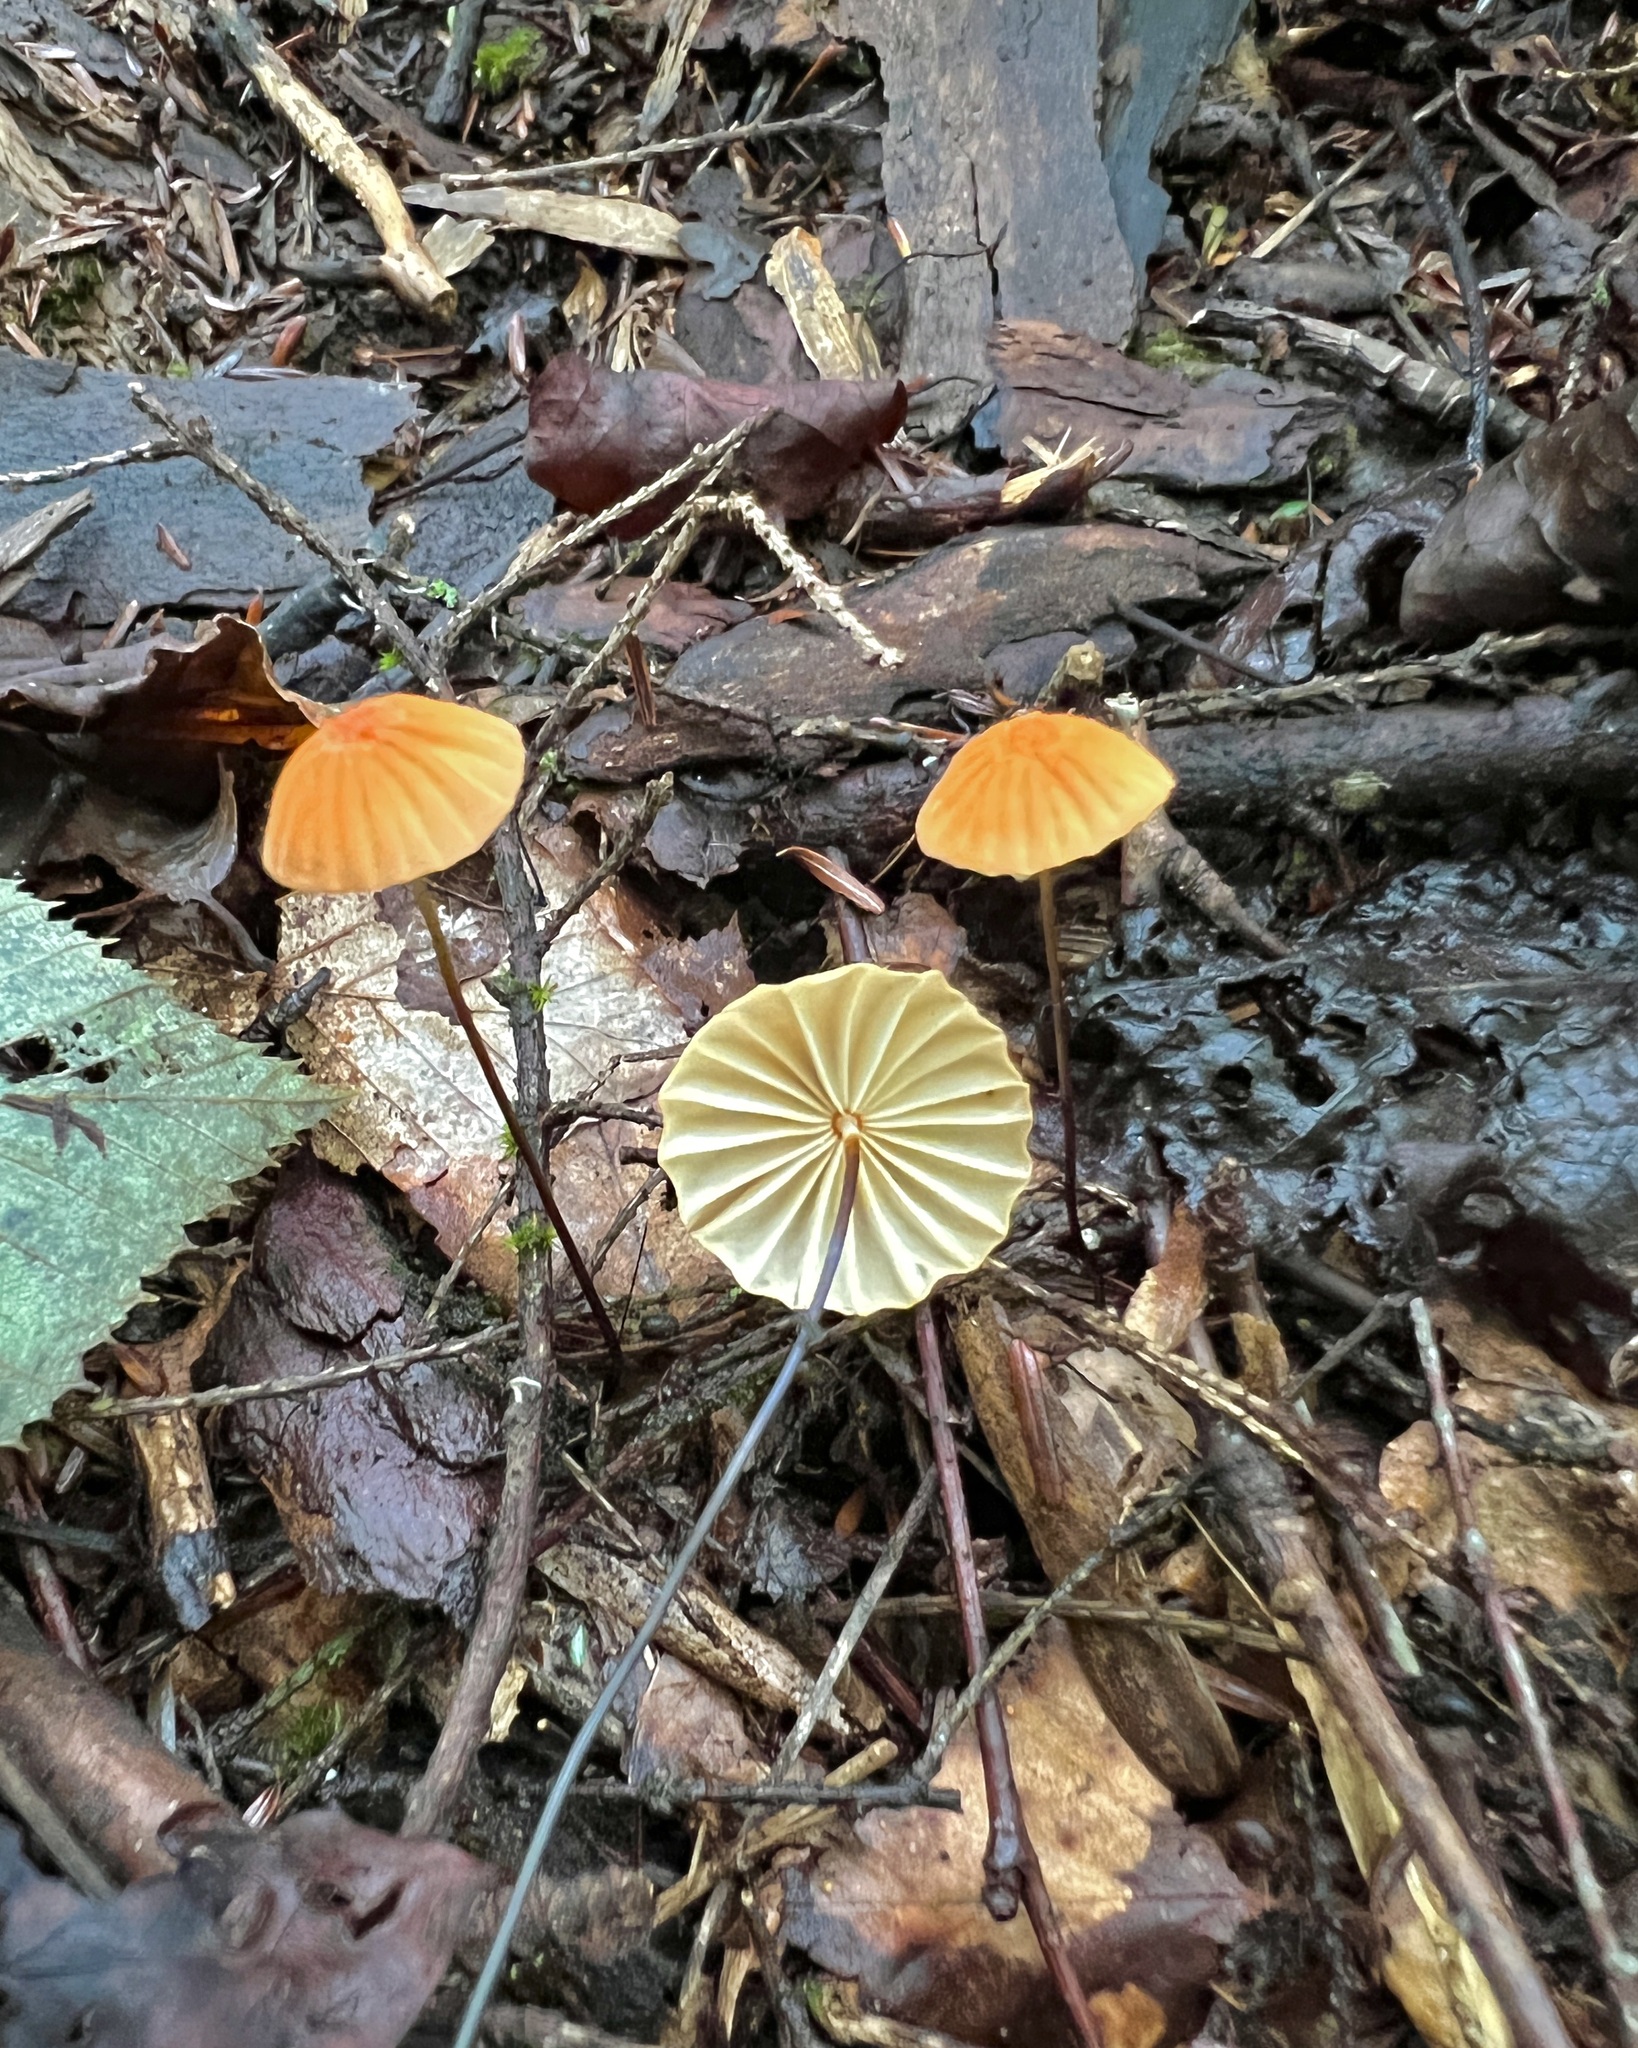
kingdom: Fungi
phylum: Basidiomycota
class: Agaricomycetes
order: Agaricales
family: Marasmiaceae
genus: Marasmius
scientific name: Marasmius siccus
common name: Orange pinwheel
